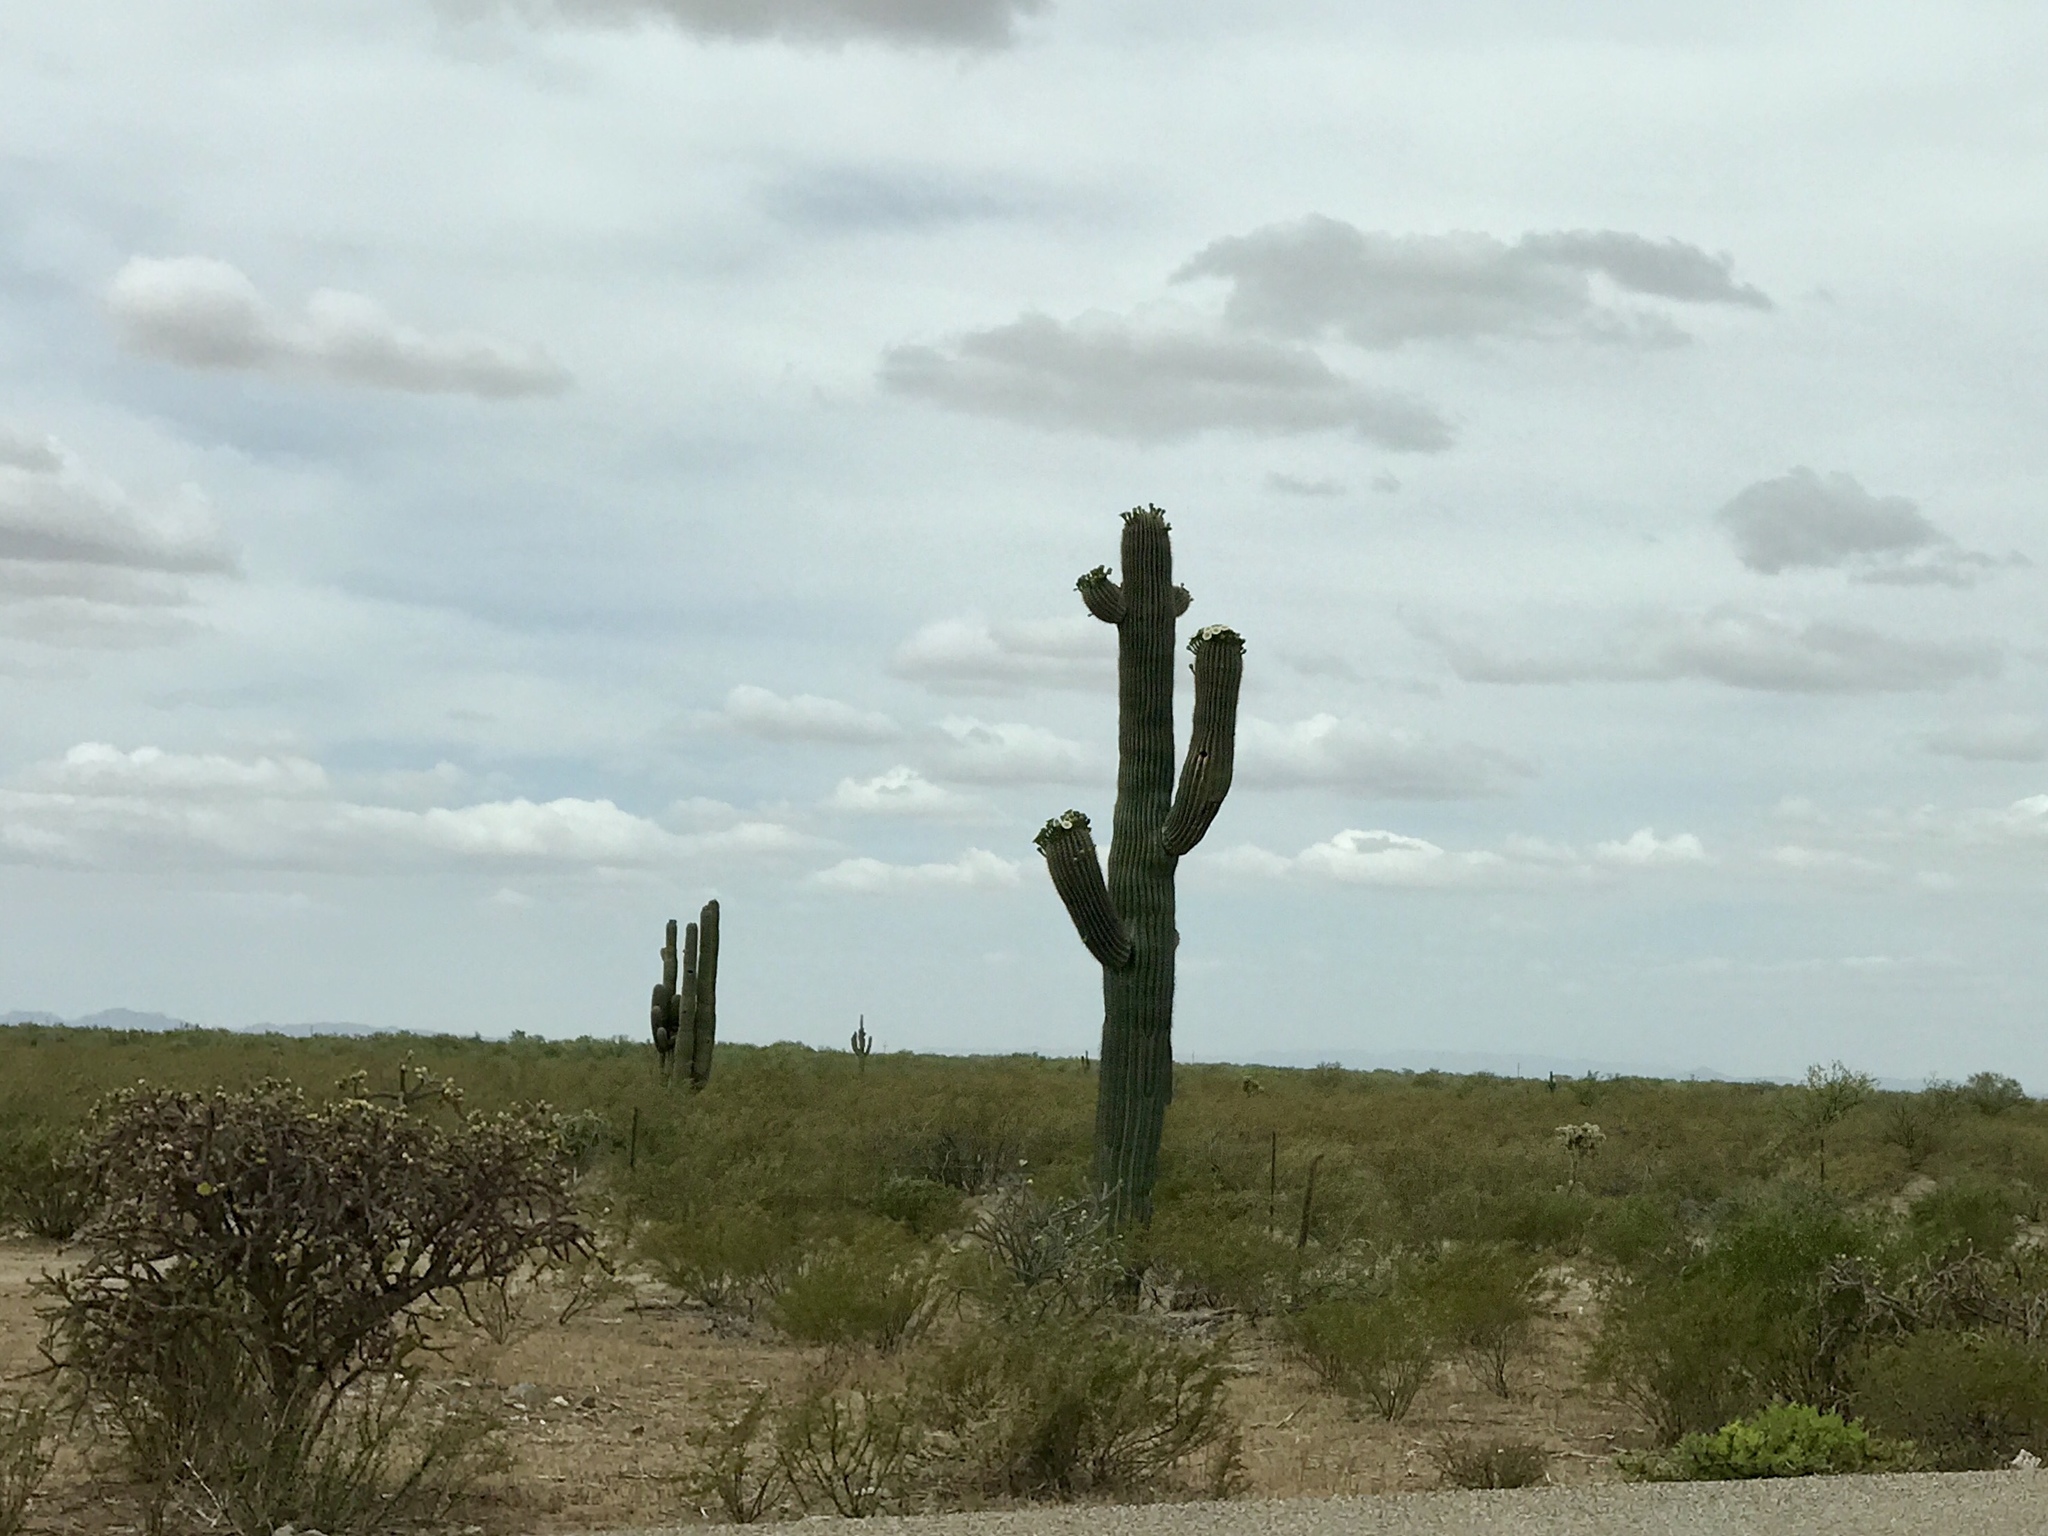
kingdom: Plantae
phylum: Tracheophyta
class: Magnoliopsida
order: Caryophyllales
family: Cactaceae
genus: Carnegiea
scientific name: Carnegiea gigantea
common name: Saguaro
